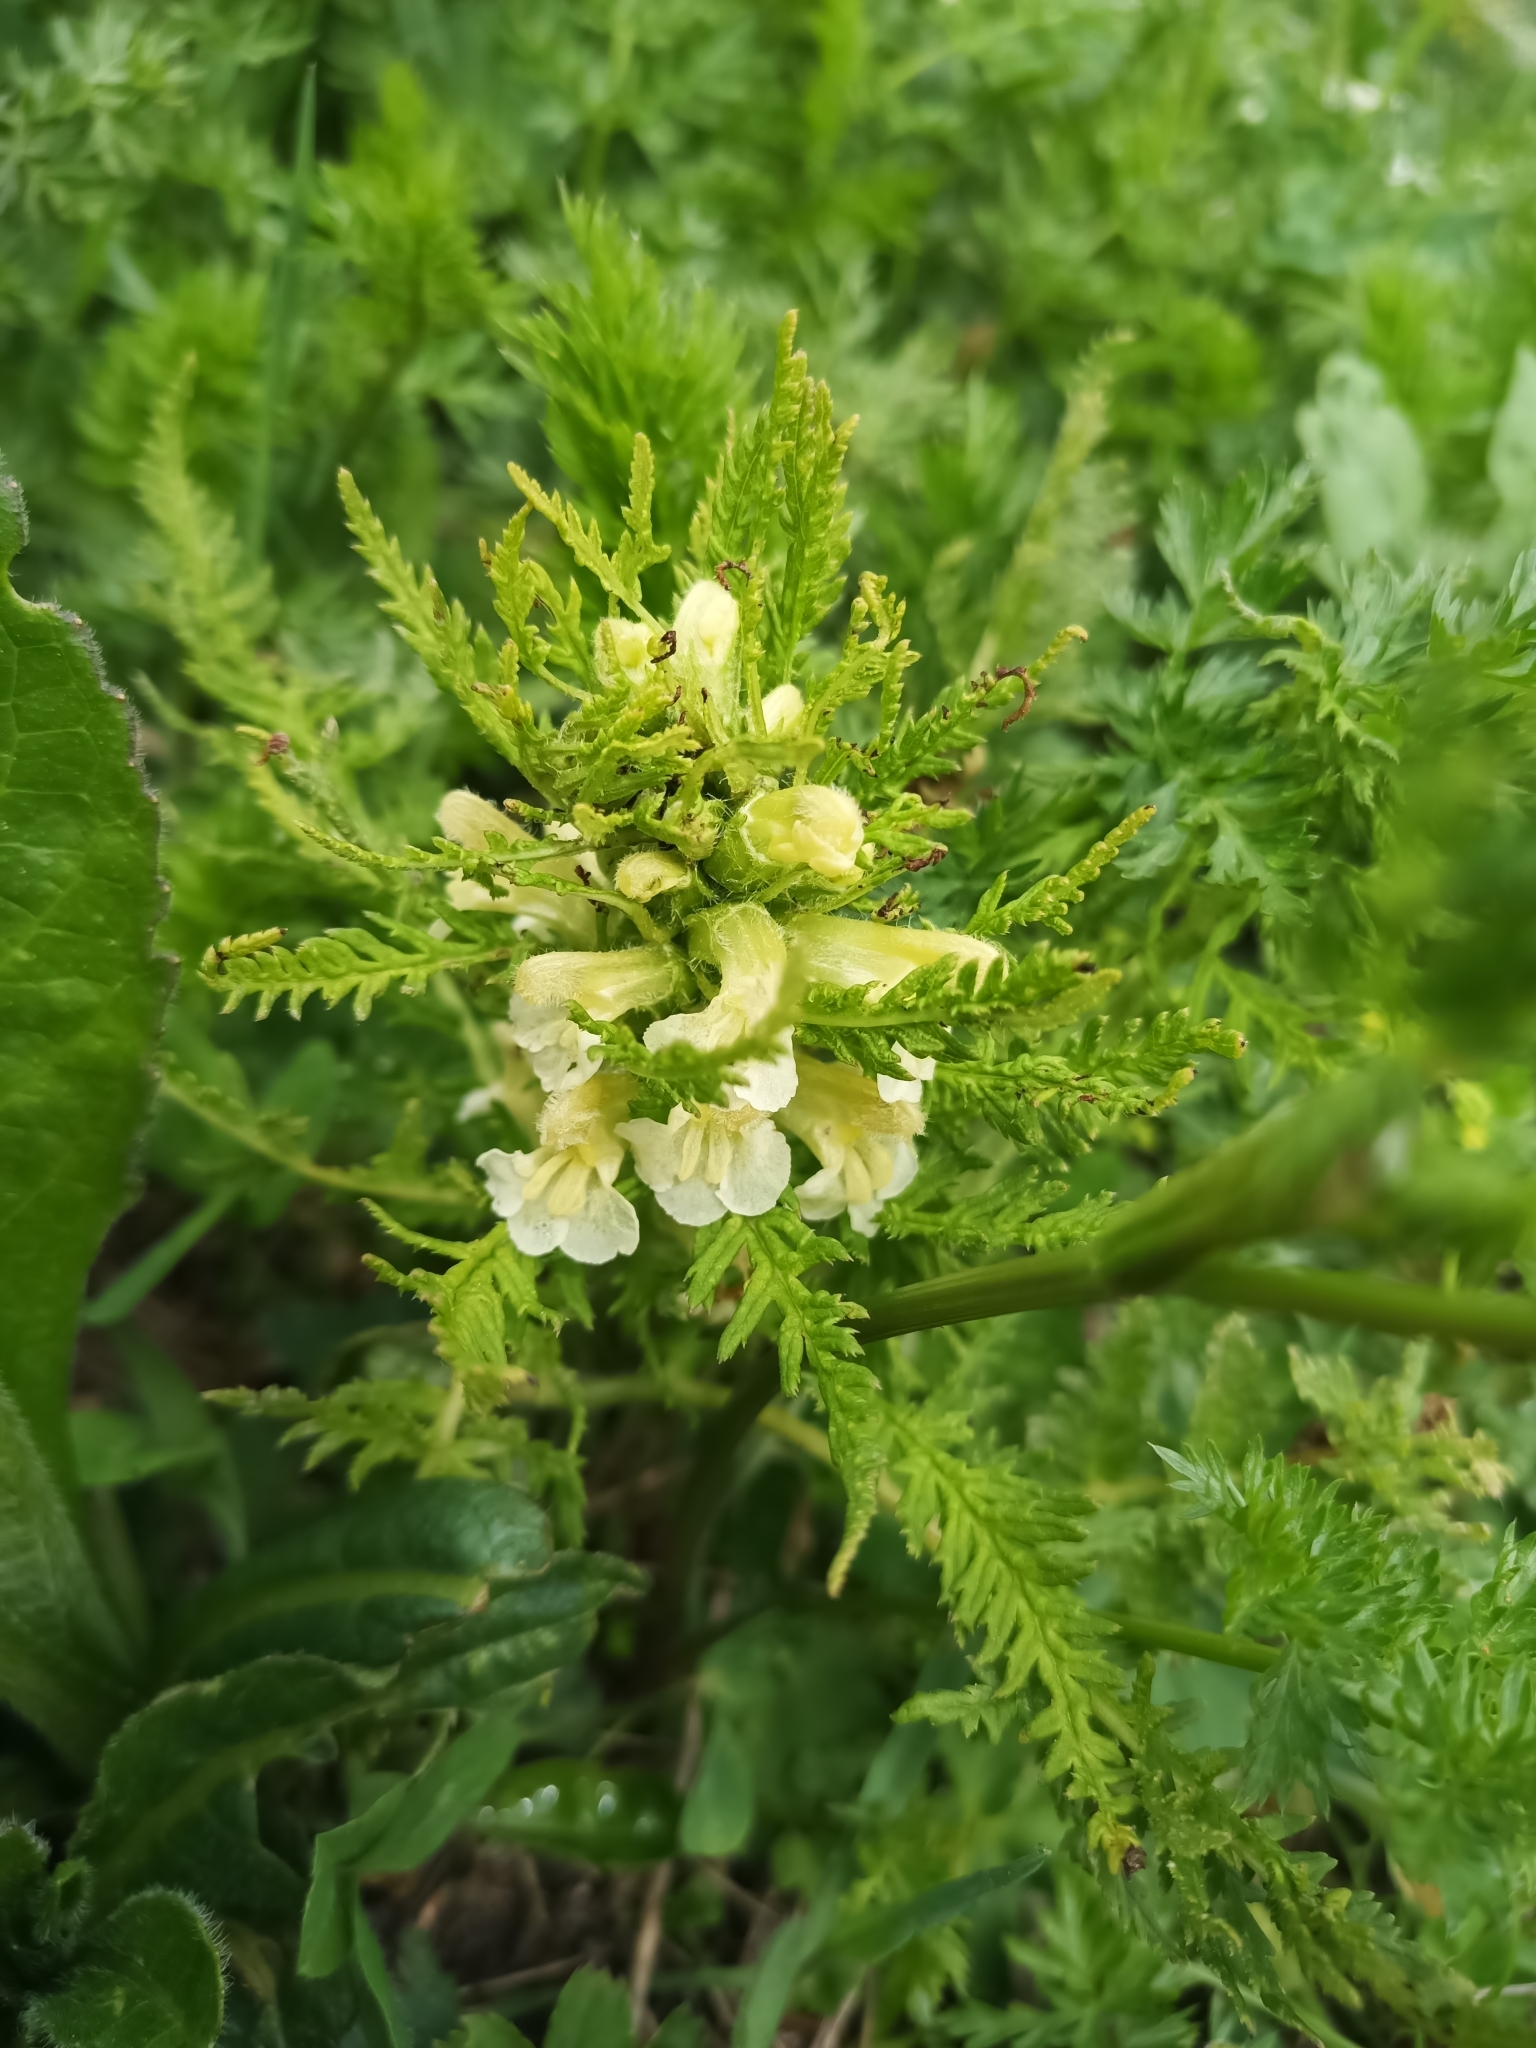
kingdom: Plantae
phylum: Tracheophyta
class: Magnoliopsida
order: Lamiales
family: Orobanchaceae
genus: Pedicularis
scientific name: Pedicularis foliosa
